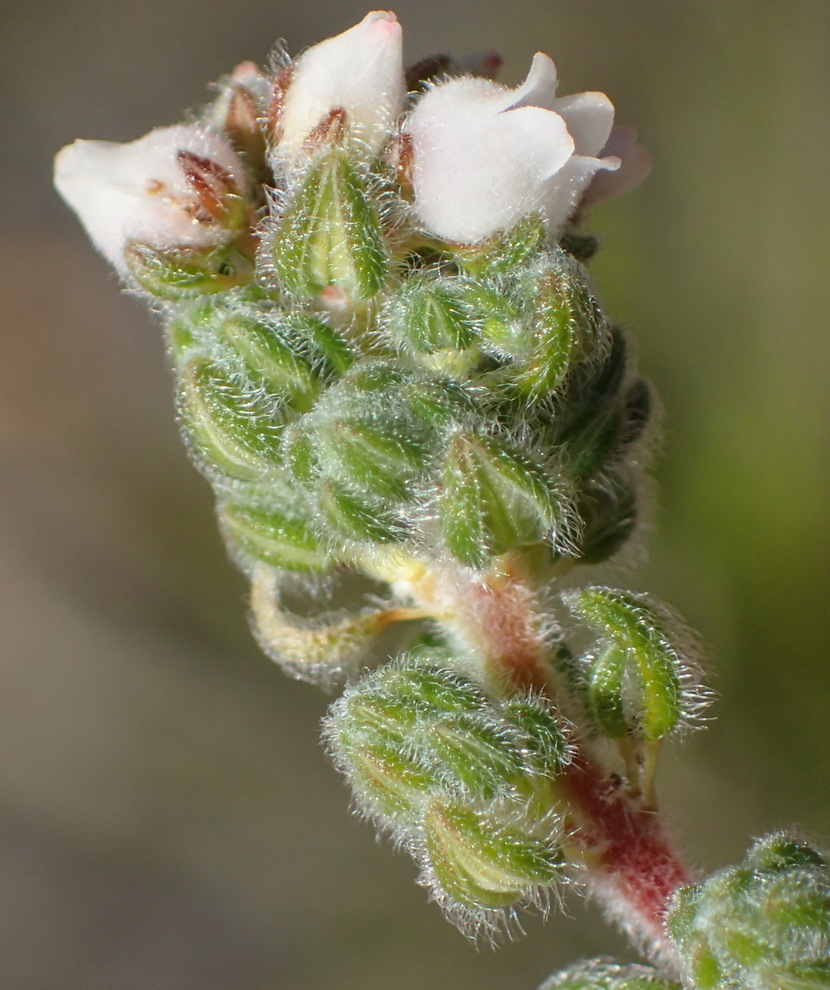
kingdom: Plantae
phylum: Tracheophyta
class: Magnoliopsida
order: Ericales
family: Ericaceae
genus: Erica
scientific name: Erica oreotragus
